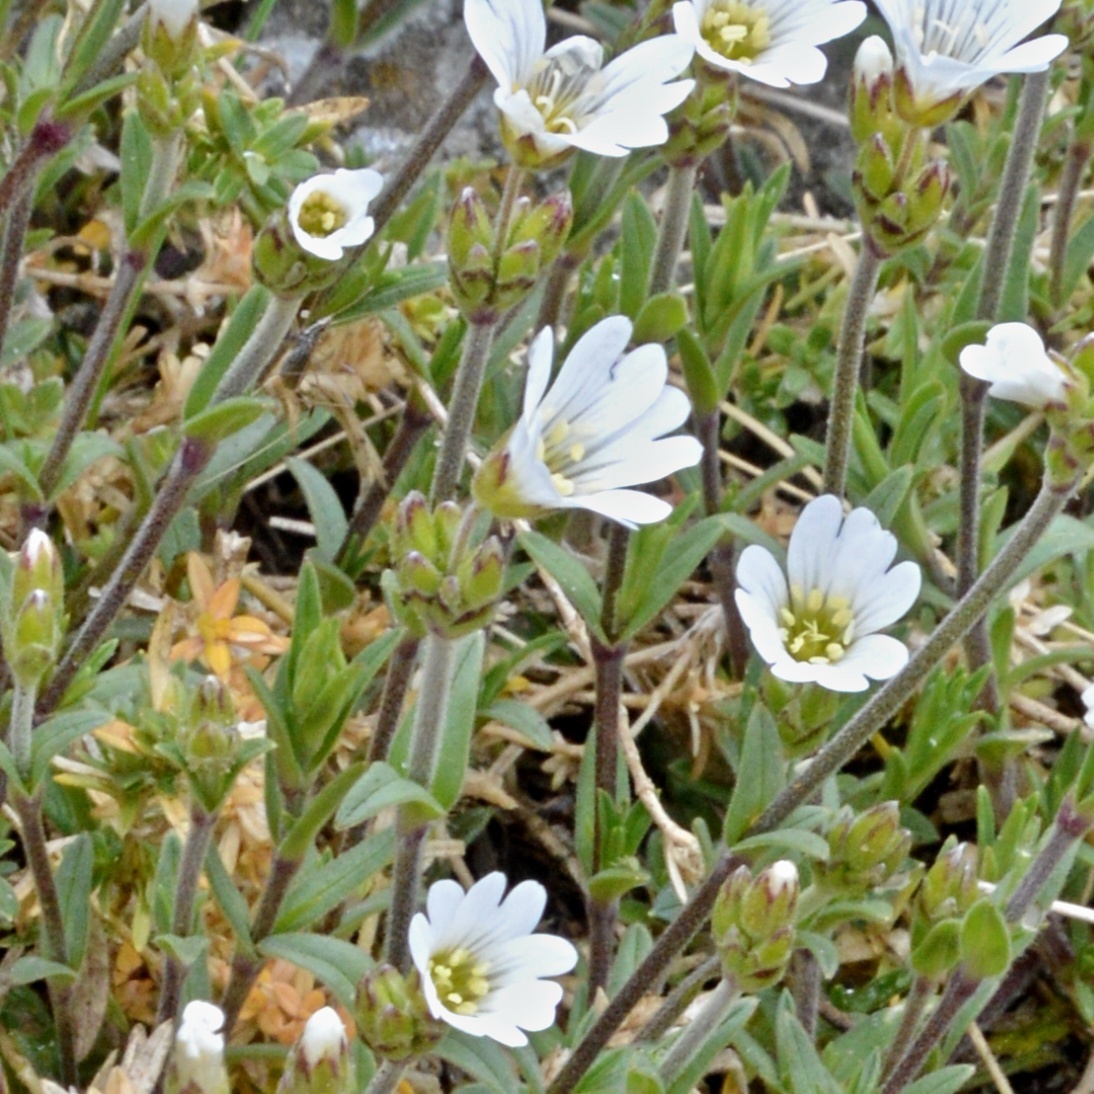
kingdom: Plantae
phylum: Tracheophyta
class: Magnoliopsida
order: Caryophyllales
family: Caryophyllaceae
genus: Cerastium
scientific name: Cerastium arvense
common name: Field mouse-ear
